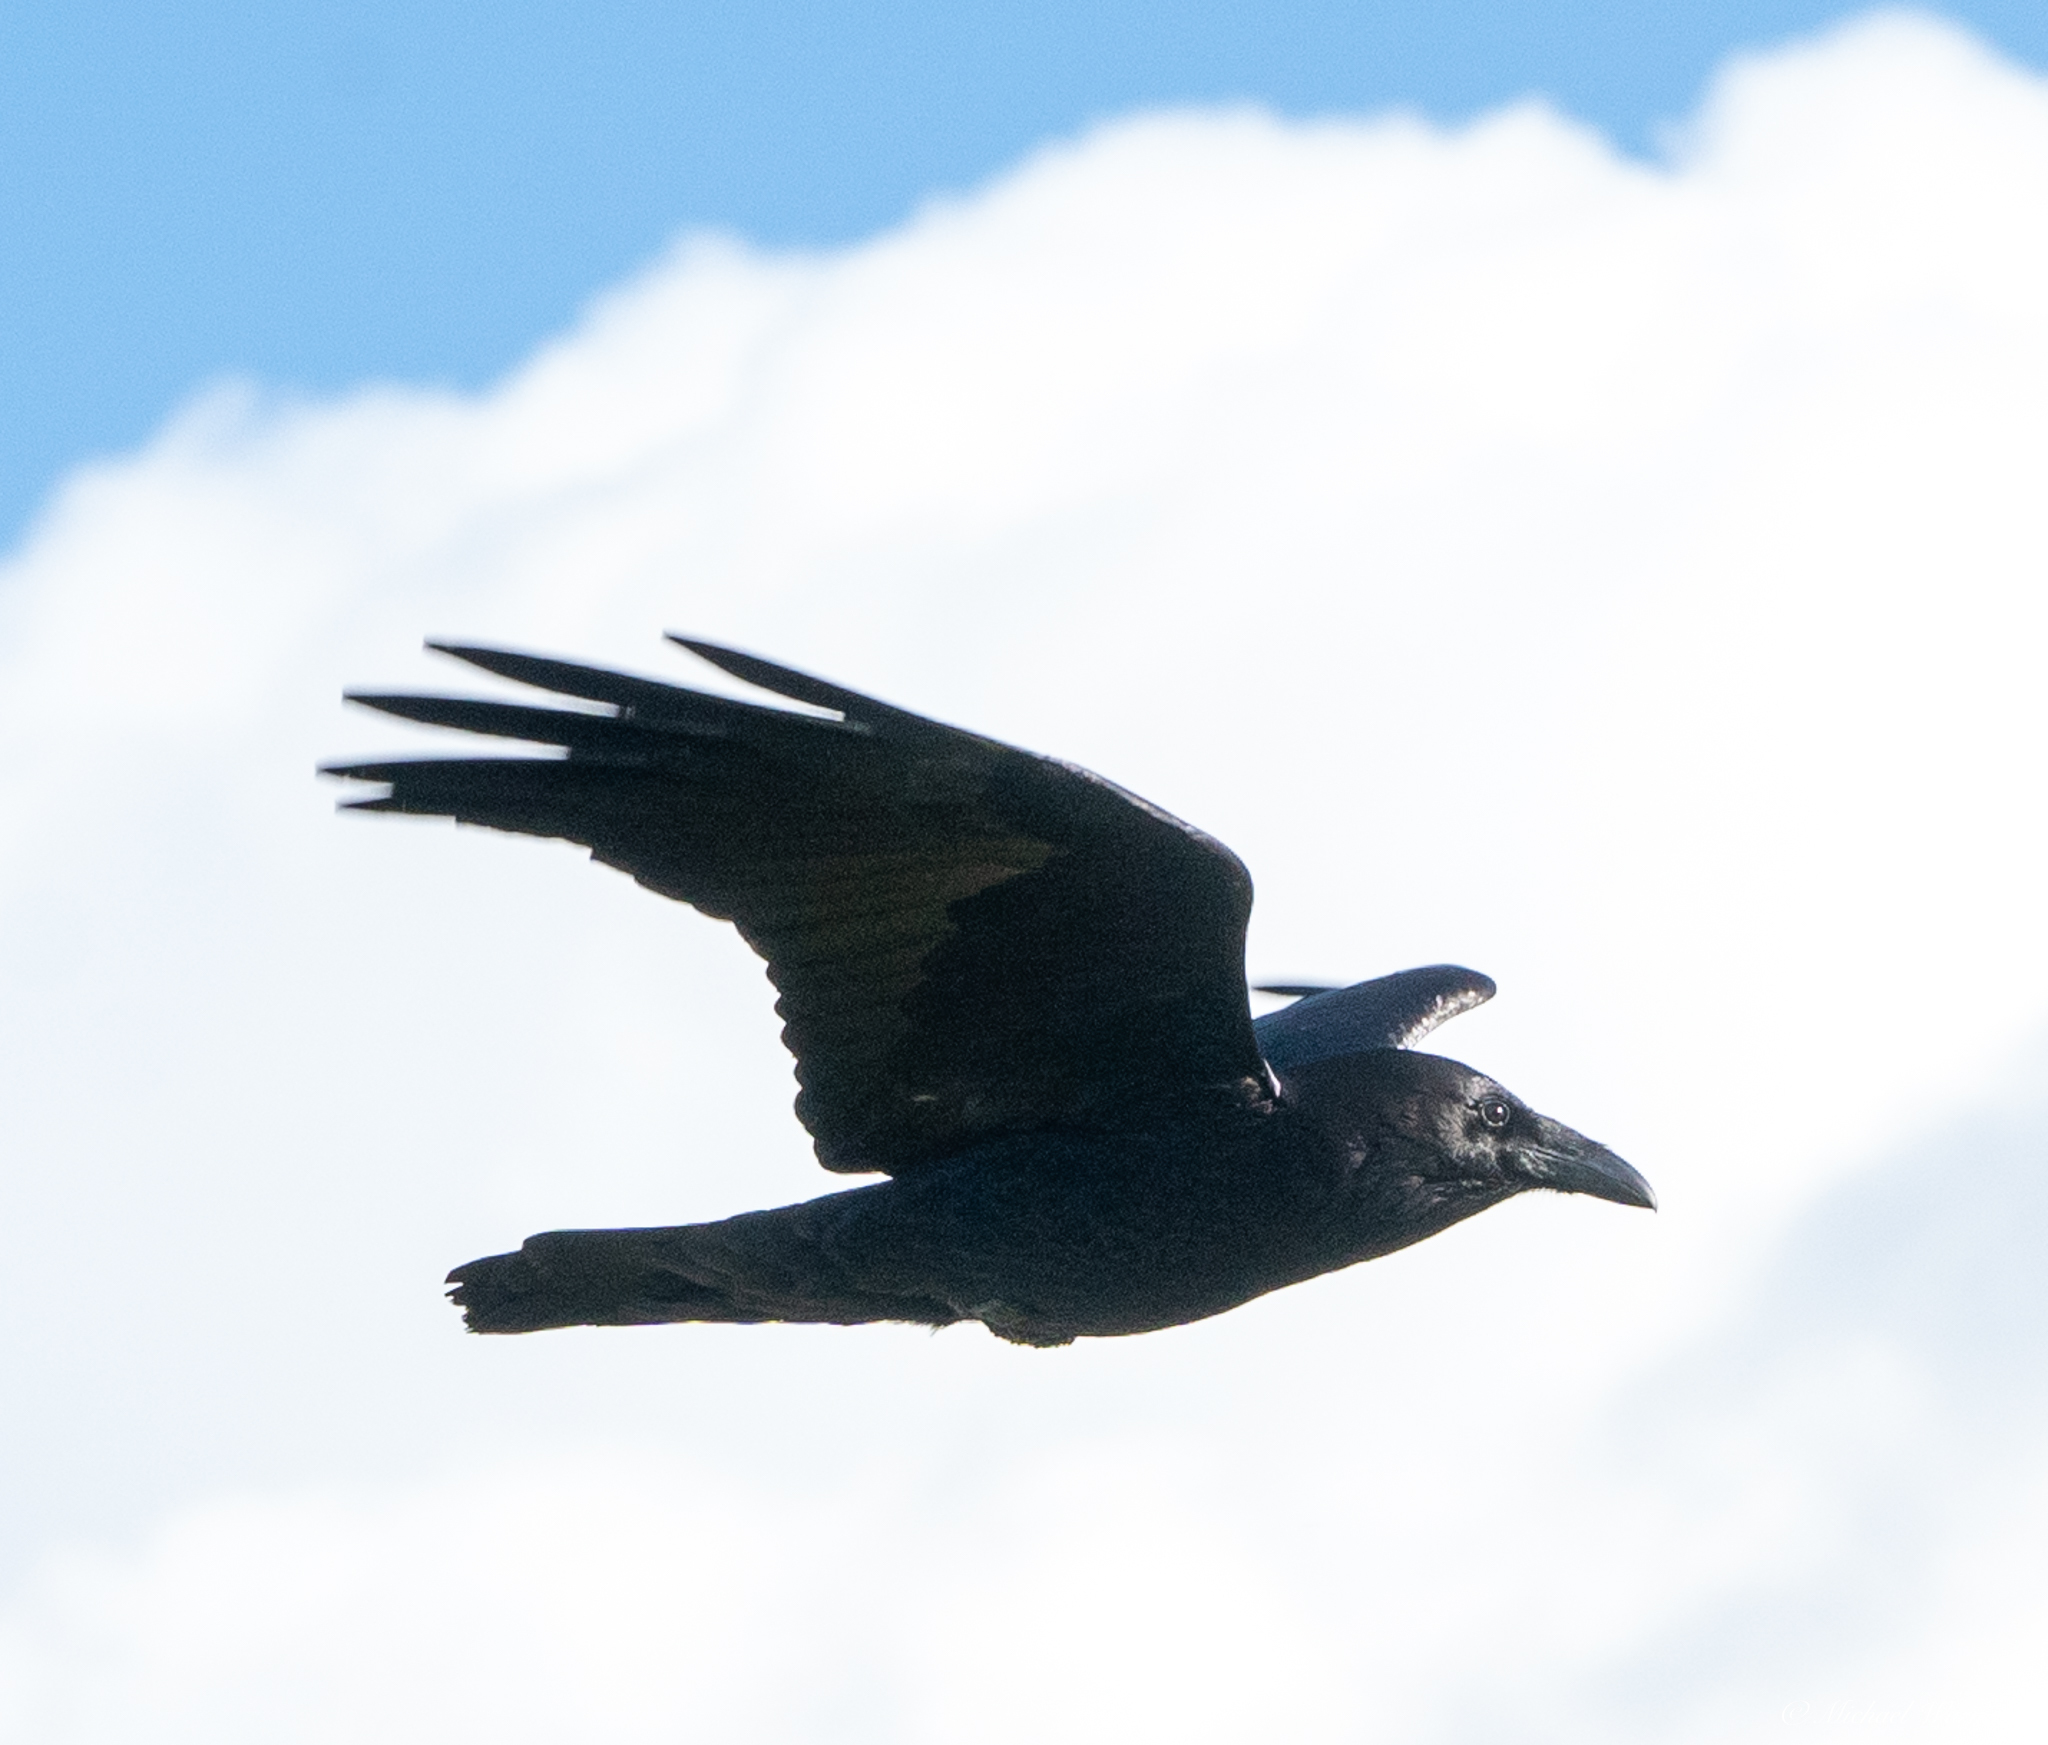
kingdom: Animalia
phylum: Chordata
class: Aves
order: Passeriformes
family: Corvidae
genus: Corvus
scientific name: Corvus corax
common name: Common raven
